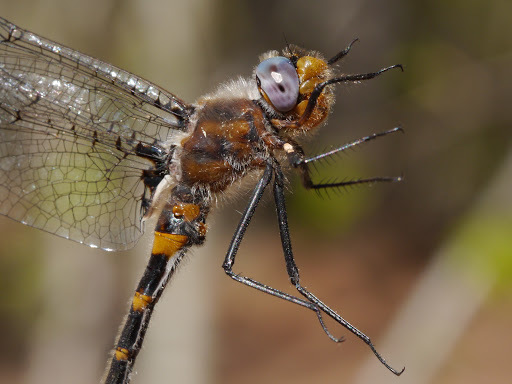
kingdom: Animalia
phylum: Arthropoda
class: Insecta
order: Odonata
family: Corduliidae
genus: Helocordulia
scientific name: Helocordulia selysii
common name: Selys's sundragon
